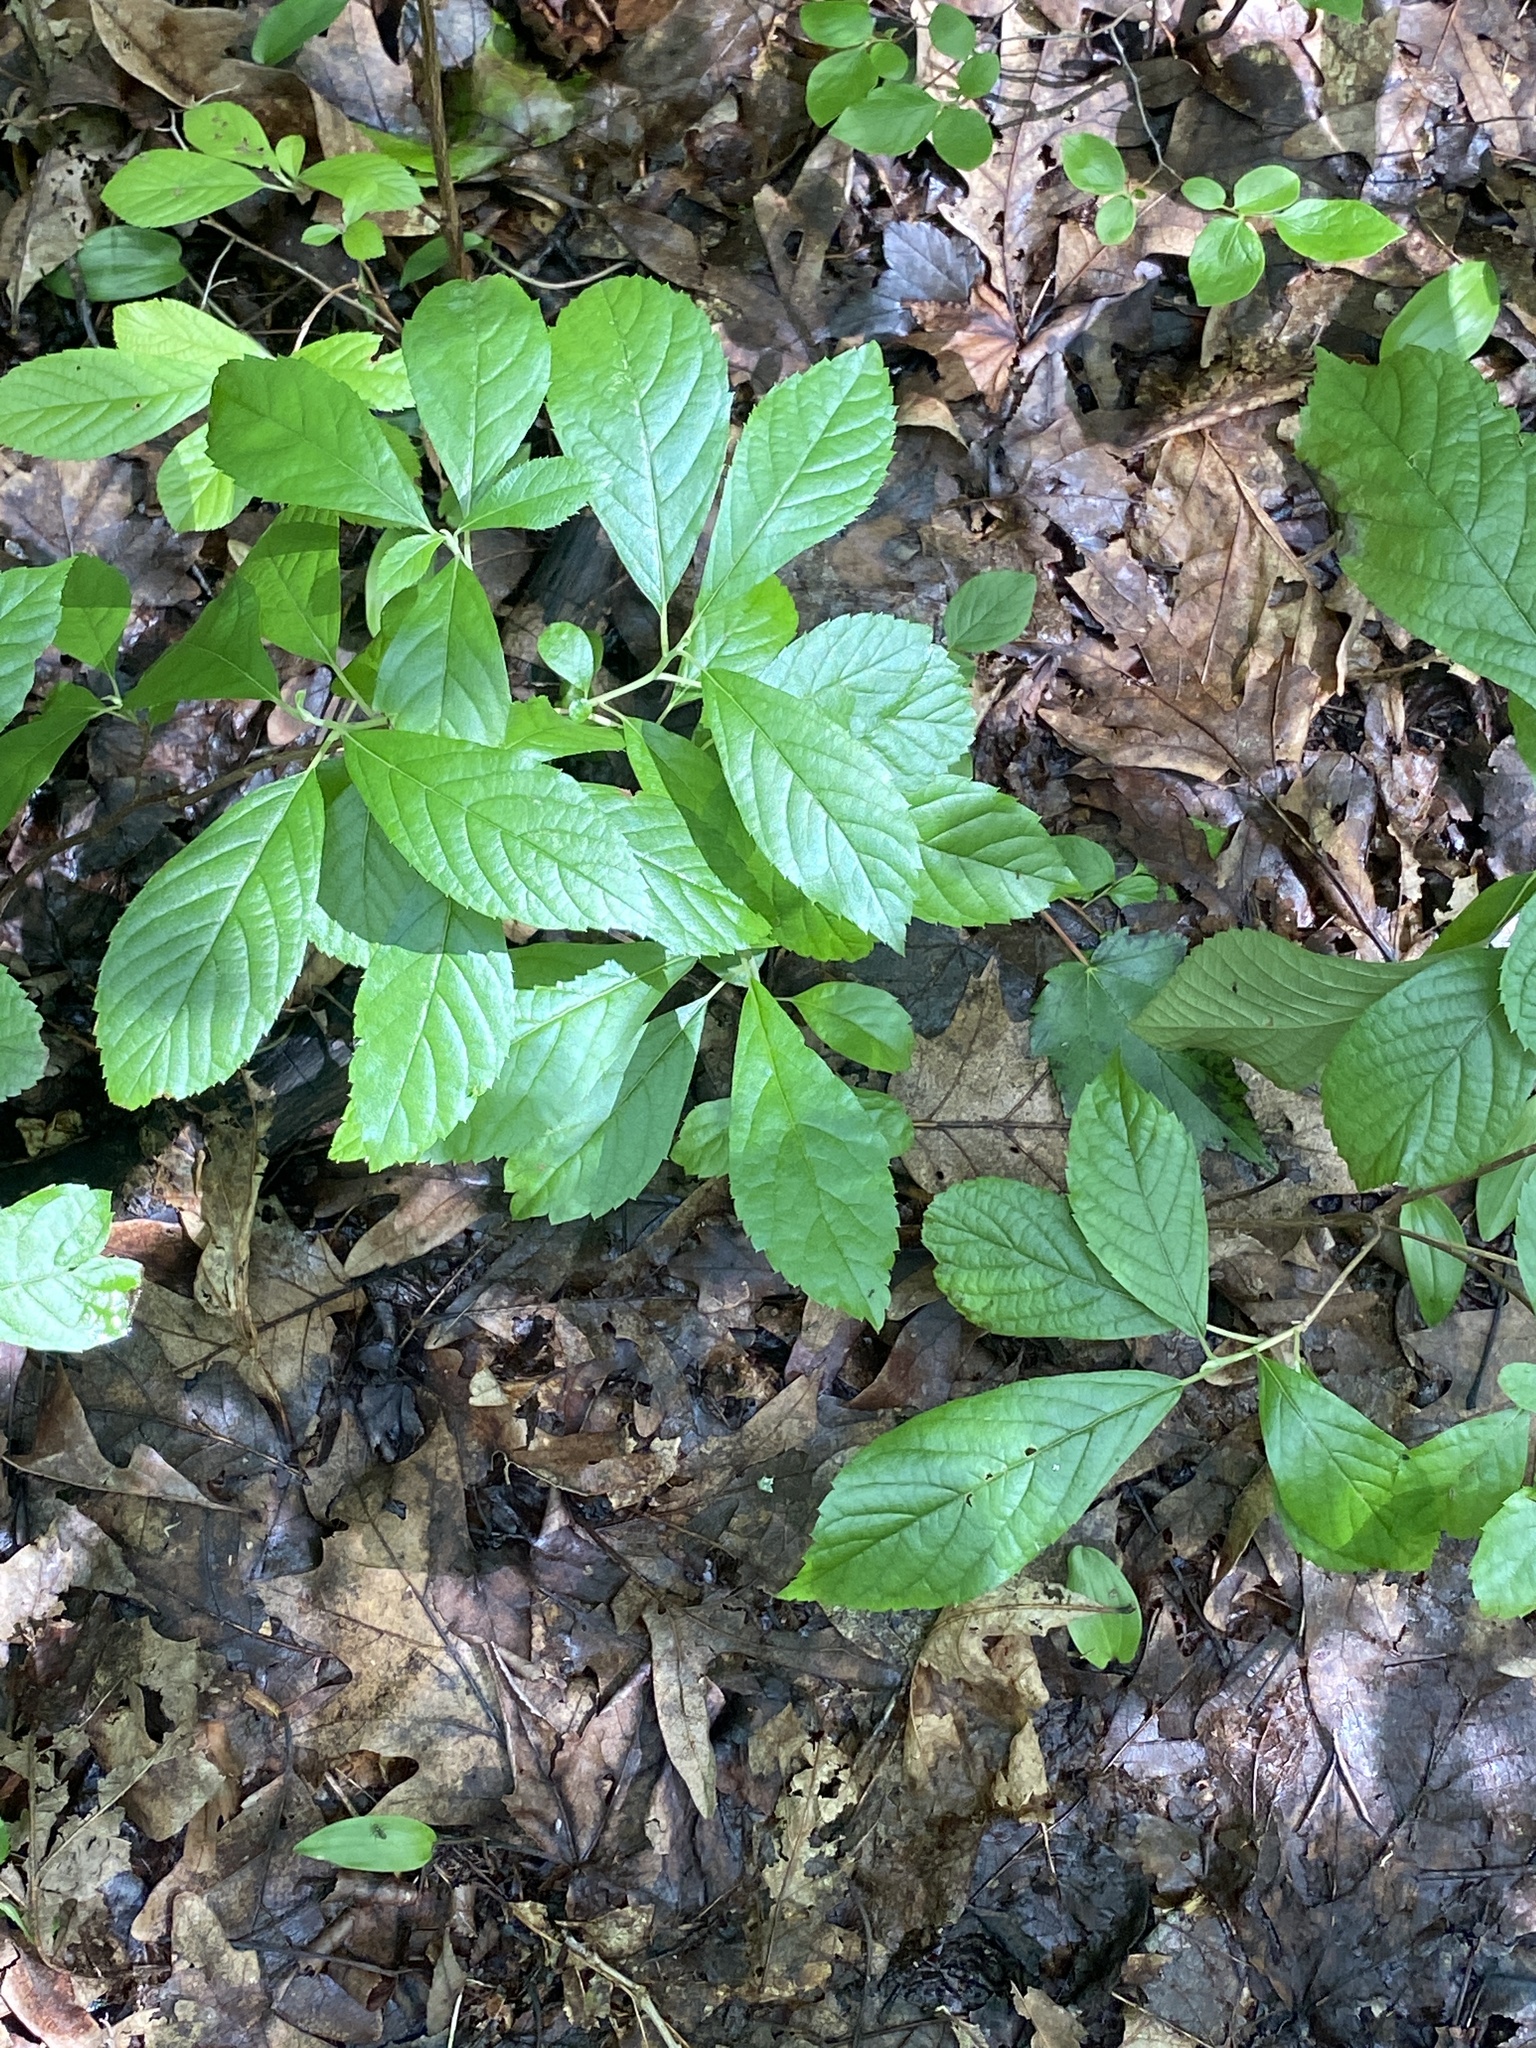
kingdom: Plantae
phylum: Tracheophyta
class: Magnoliopsida
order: Ericales
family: Clethraceae
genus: Clethra
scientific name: Clethra alnifolia
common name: Sweet pepperbush
